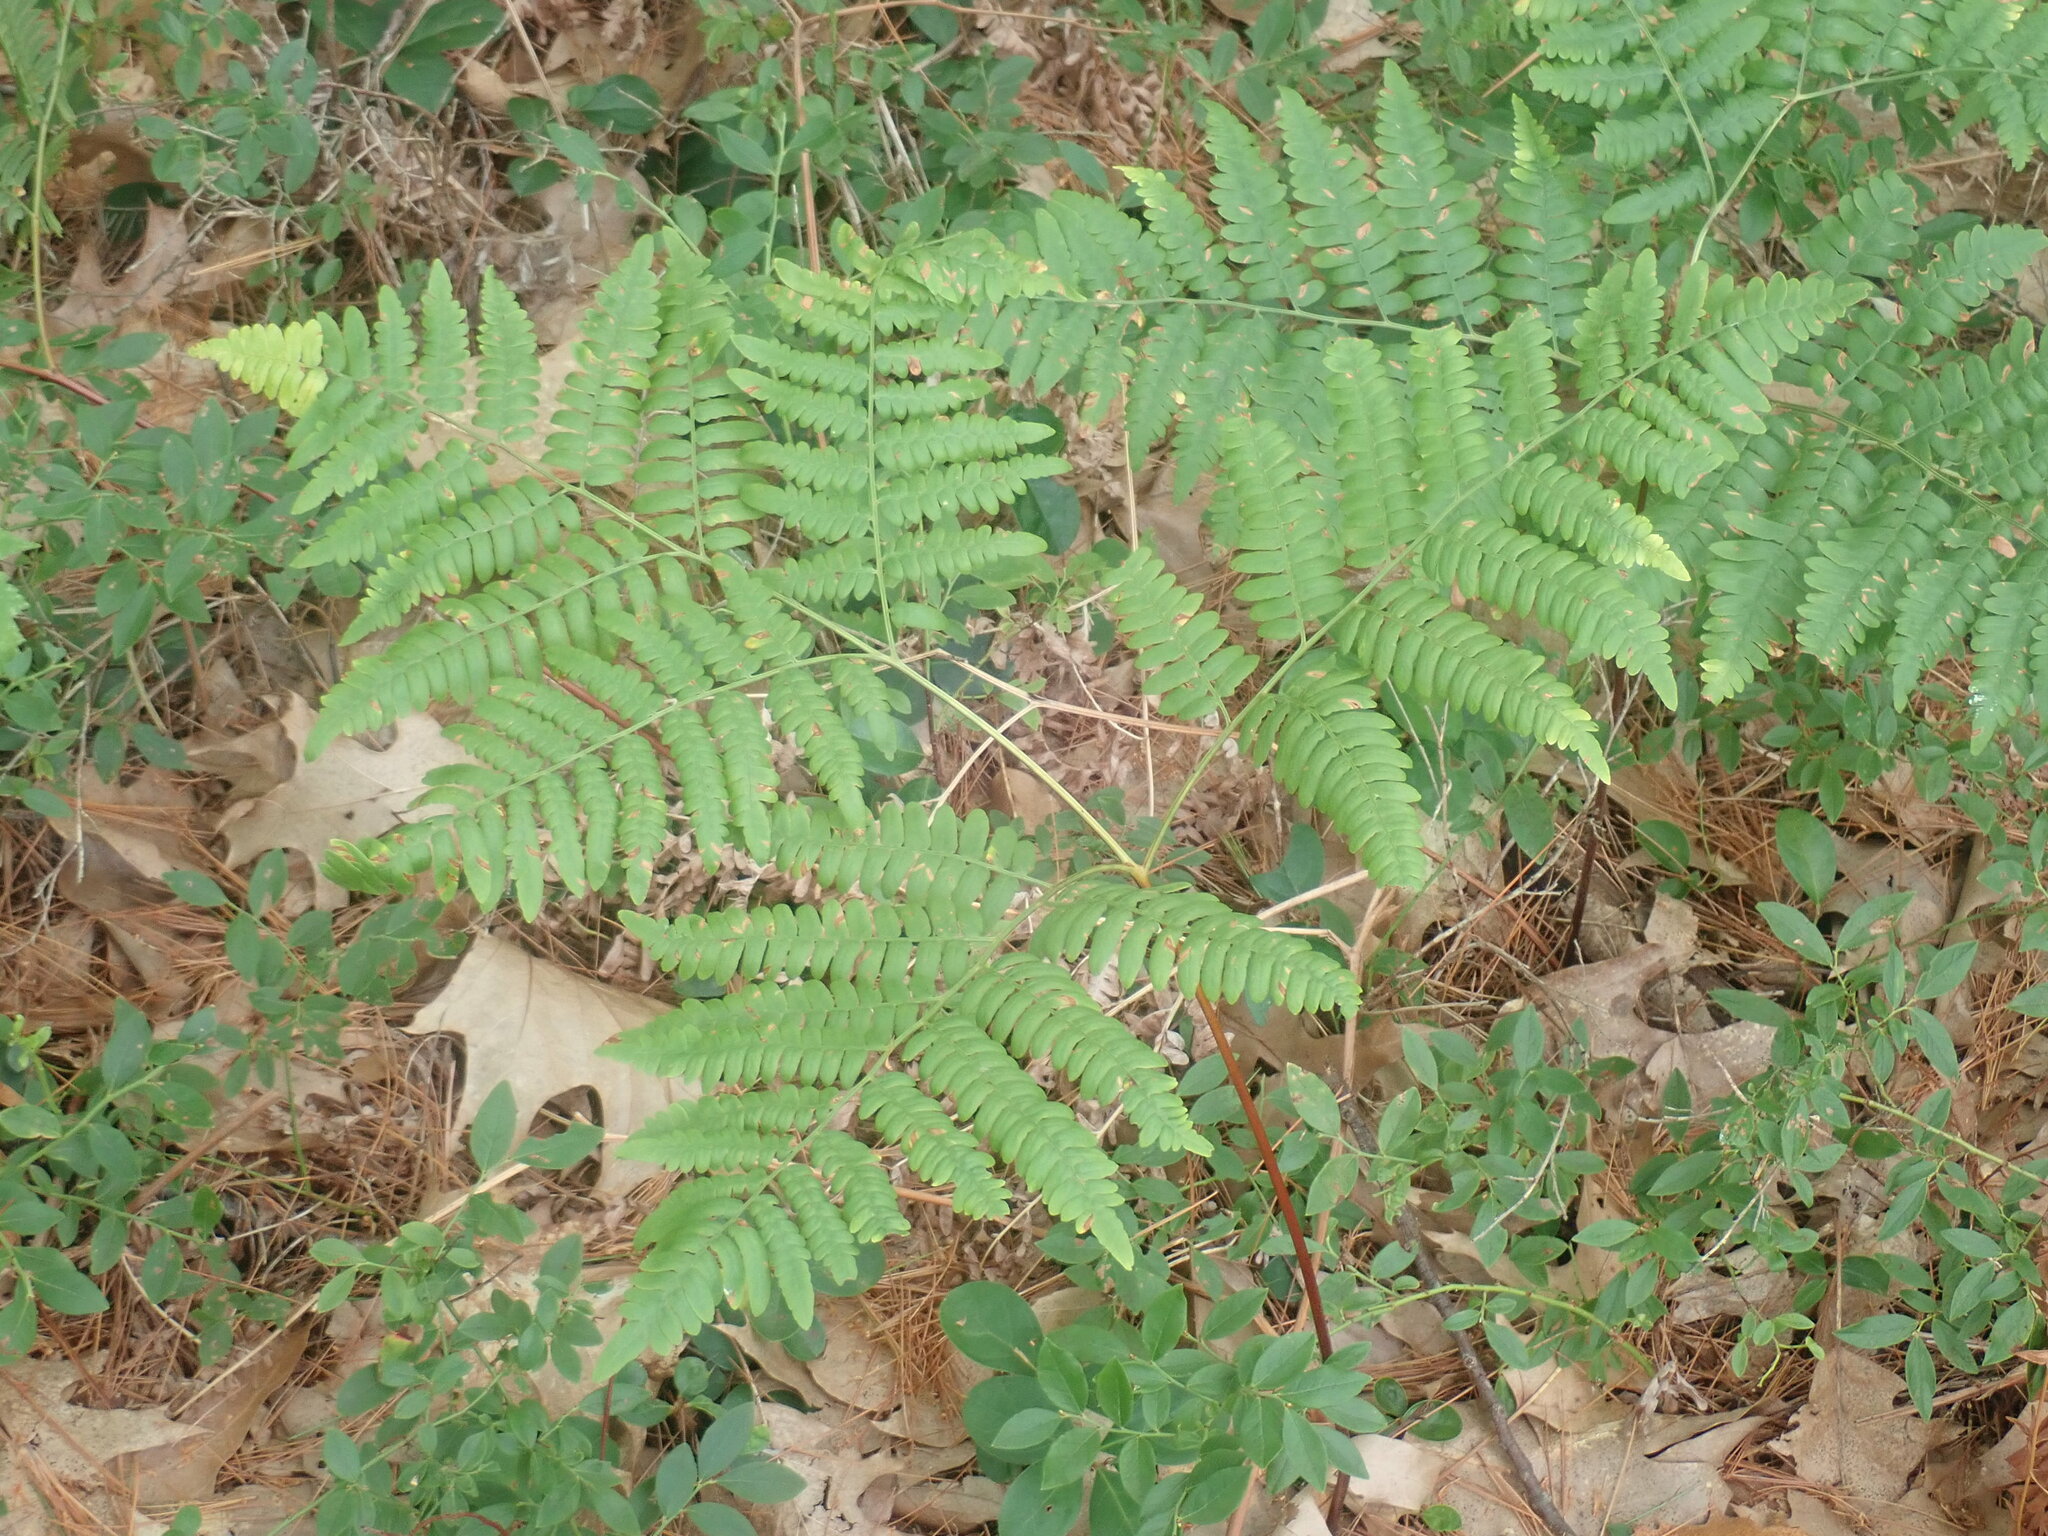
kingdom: Plantae
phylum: Tracheophyta
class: Polypodiopsida
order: Polypodiales
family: Dennstaedtiaceae
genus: Pteridium
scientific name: Pteridium aquilinum
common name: Bracken
